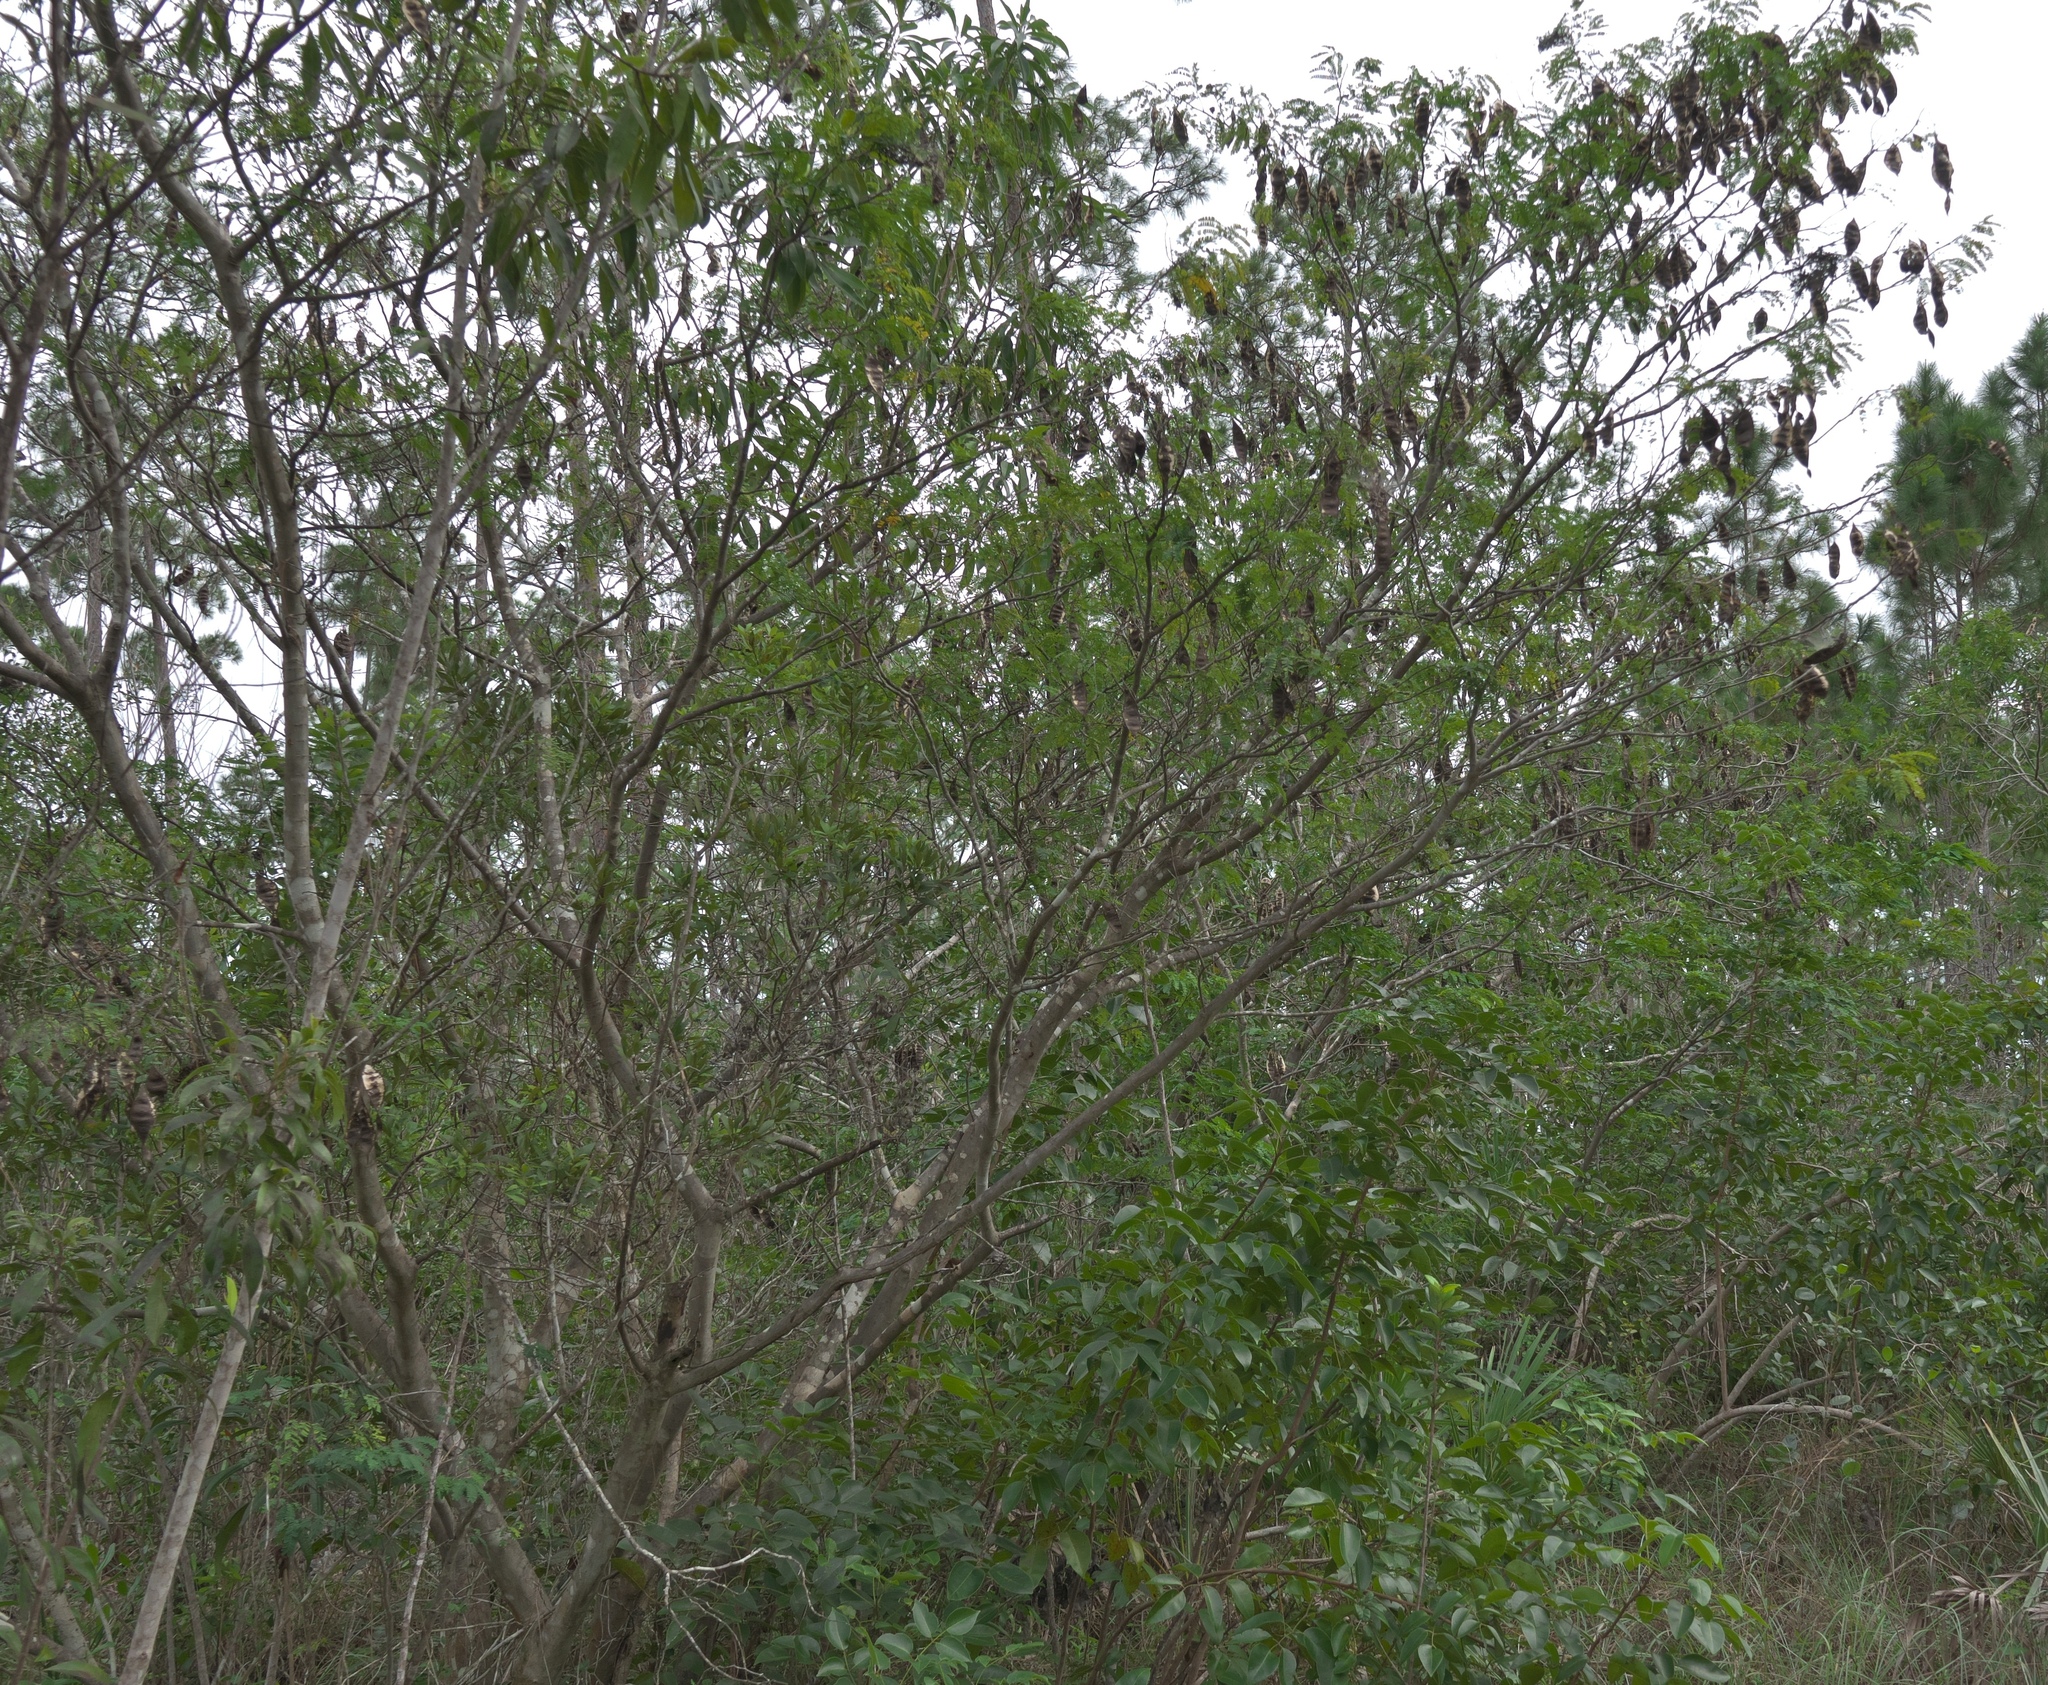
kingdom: Plantae
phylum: Tracheophyta
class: Magnoliopsida
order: Fabales
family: Fabaceae
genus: Lysiloma
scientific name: Lysiloma latisiliquum
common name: Wild tamarind
